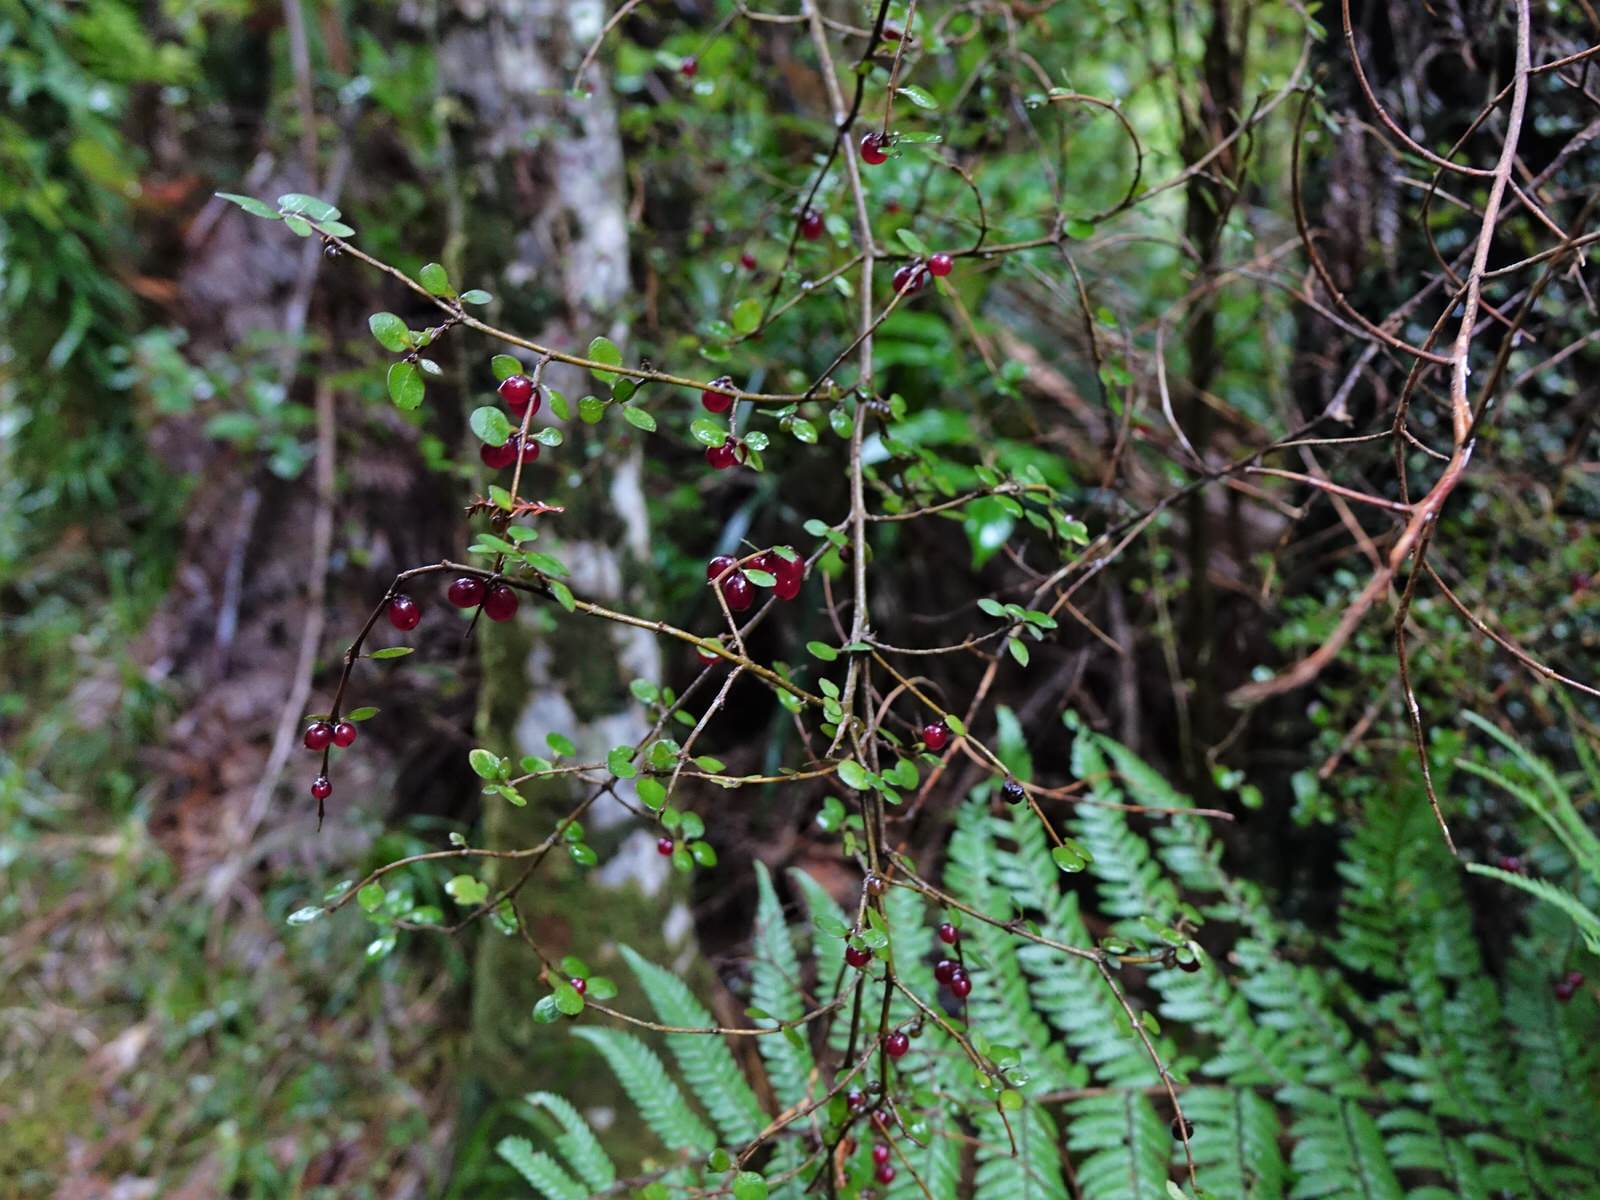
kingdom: Plantae
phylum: Tracheophyta
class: Magnoliopsida
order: Gentianales
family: Rubiaceae
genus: Coprosma
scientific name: Coprosma rhamnoides
